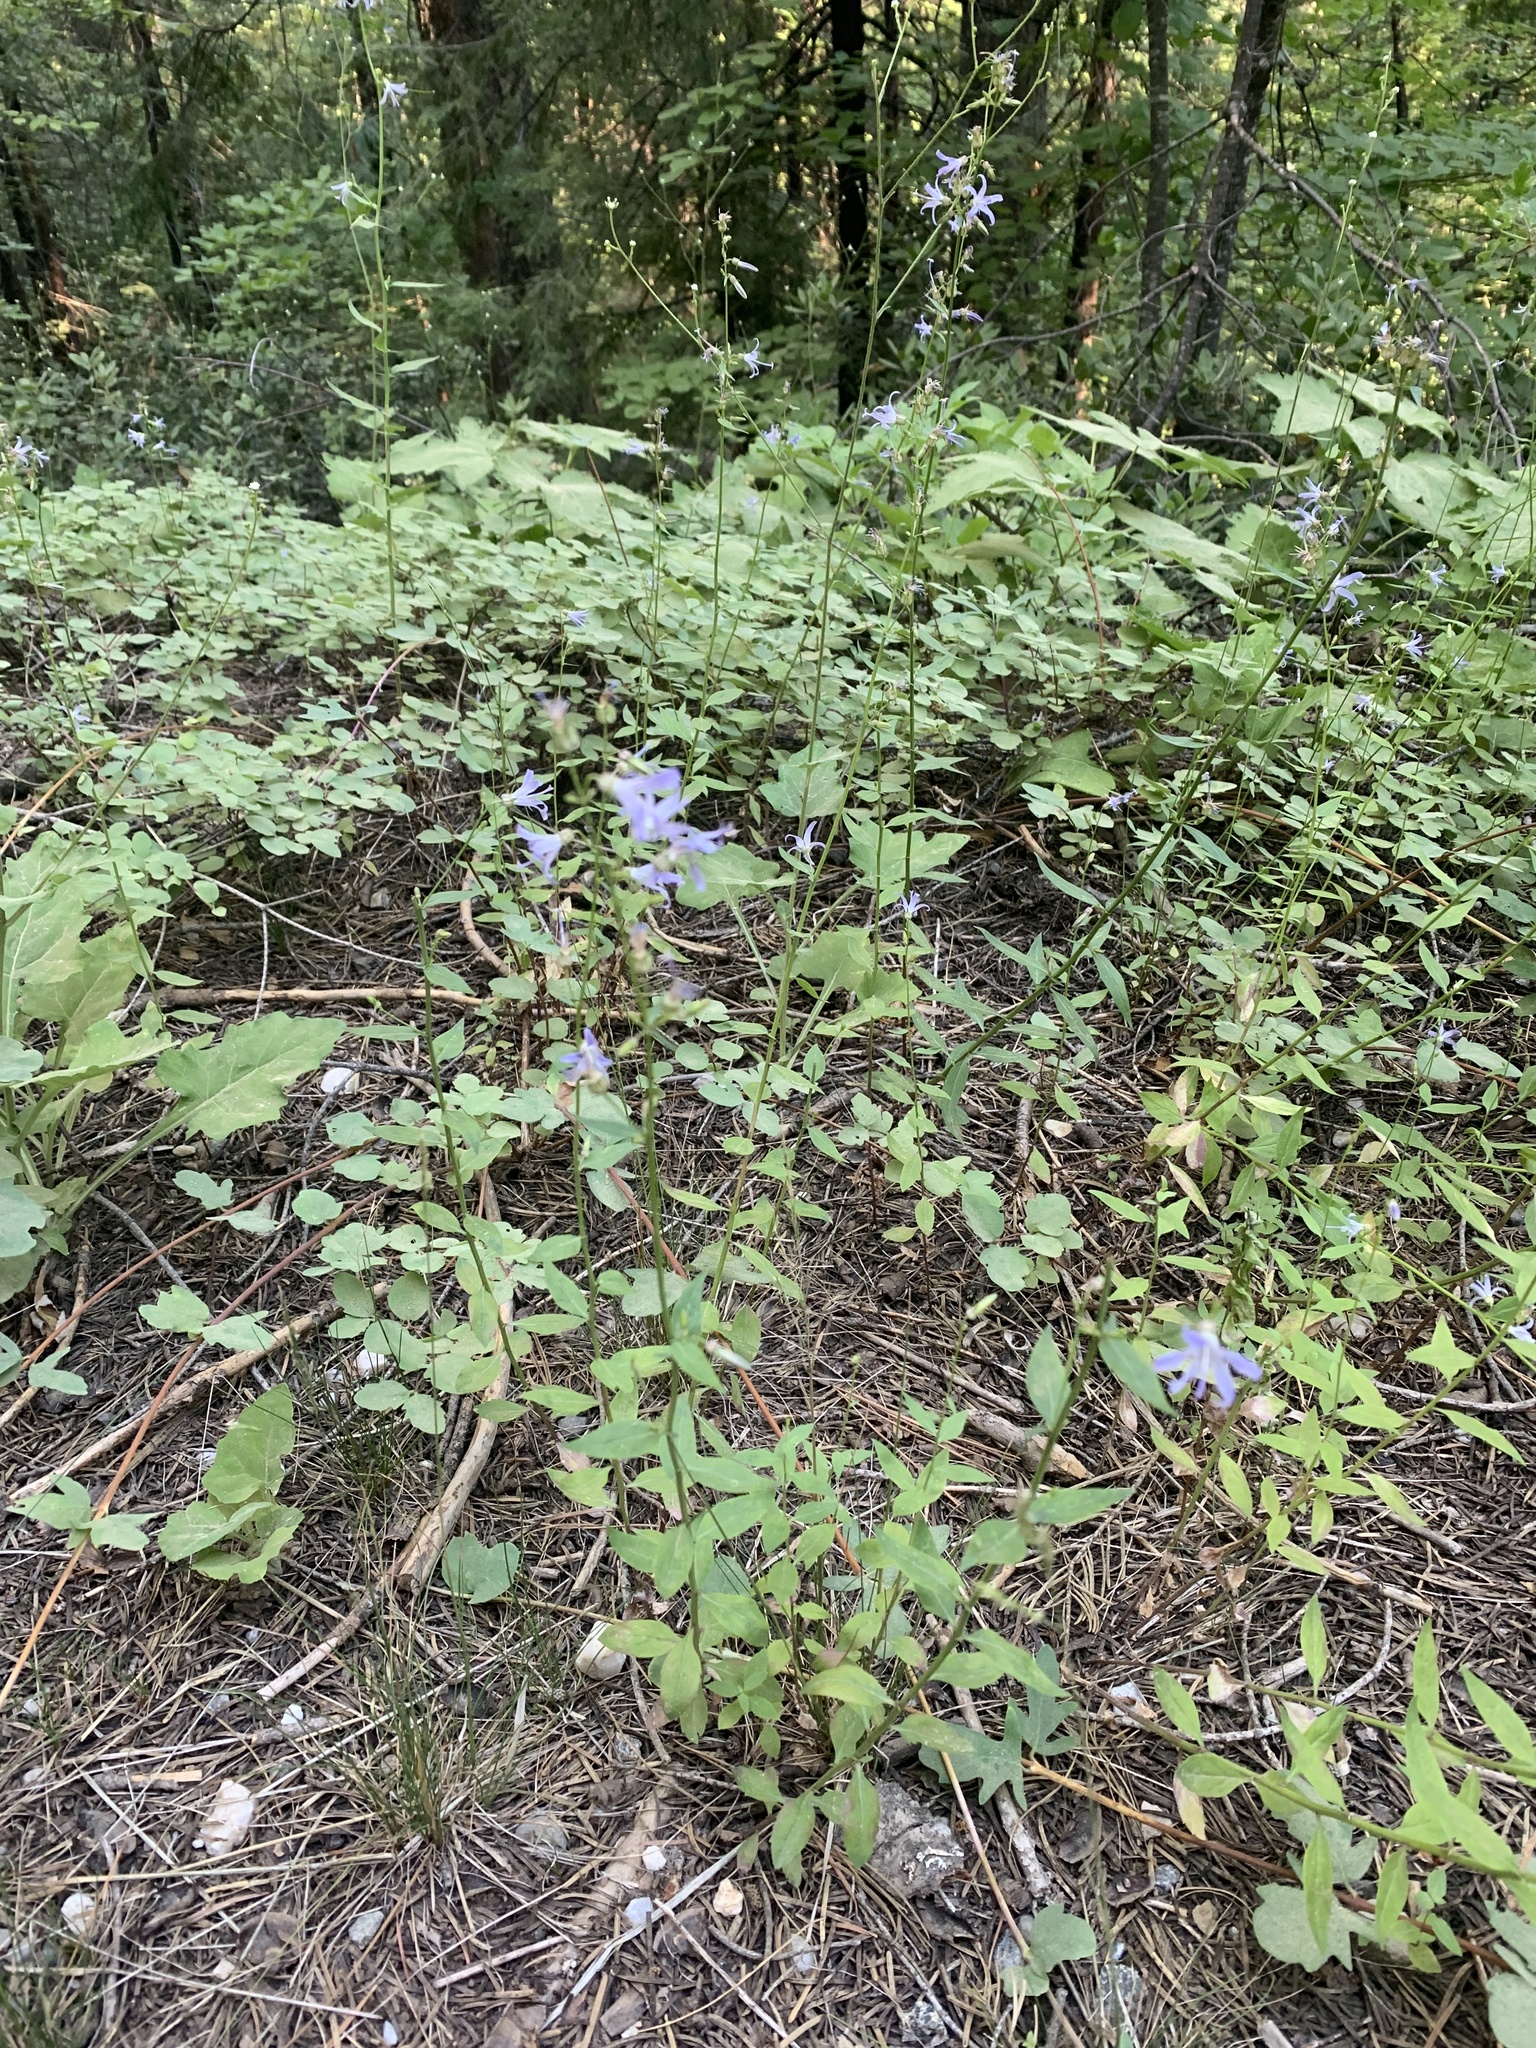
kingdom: Plantae
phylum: Tracheophyta
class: Magnoliopsida
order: Asterales
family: Campanulaceae
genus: Smithiastrum
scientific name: Smithiastrum prenanthoides
